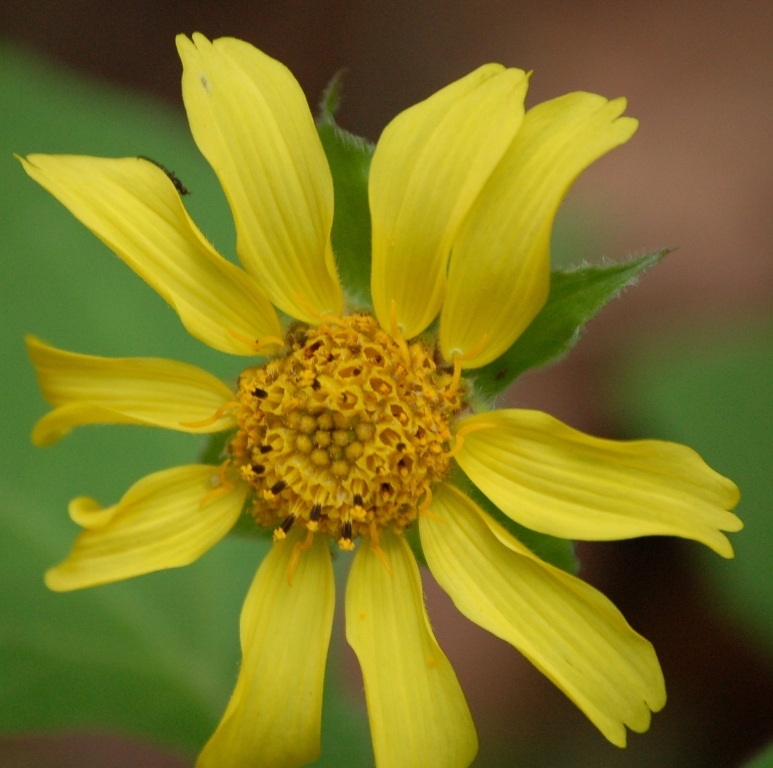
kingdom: Plantae
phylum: Tracheophyta
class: Magnoliopsida
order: Asterales
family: Asteraceae
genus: Melampodium
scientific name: Melampodium perfoliatum
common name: Perfoliate blackfoot
